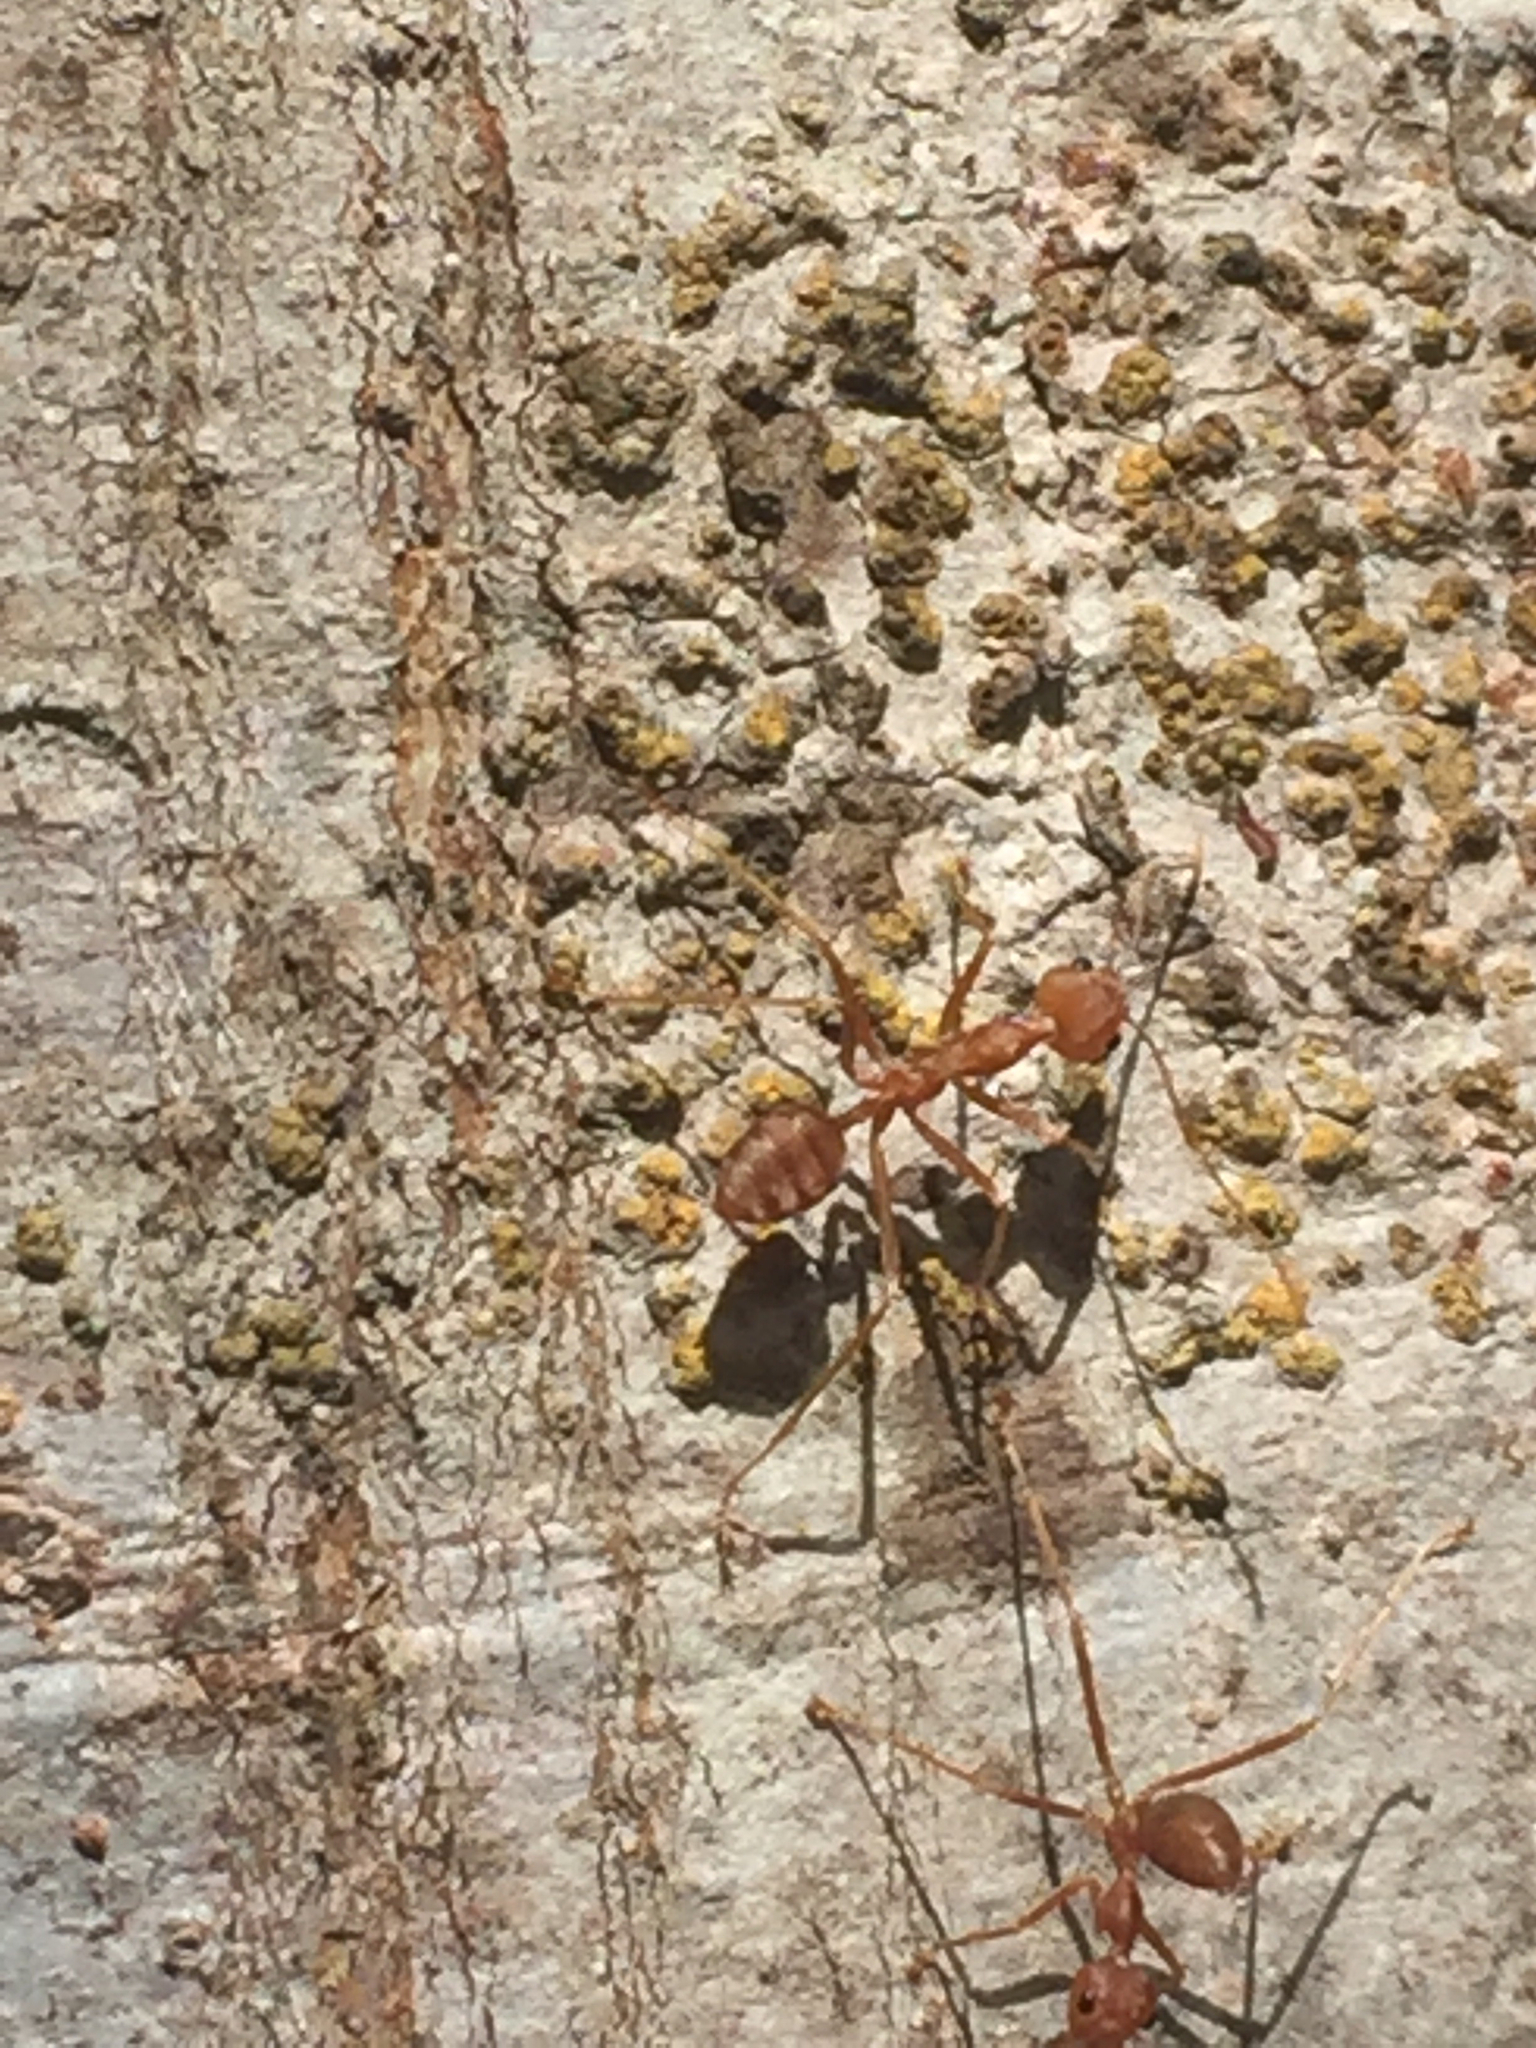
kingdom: Animalia
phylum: Arthropoda
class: Insecta
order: Hymenoptera
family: Formicidae
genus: Oecophylla
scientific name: Oecophylla smaragdina
